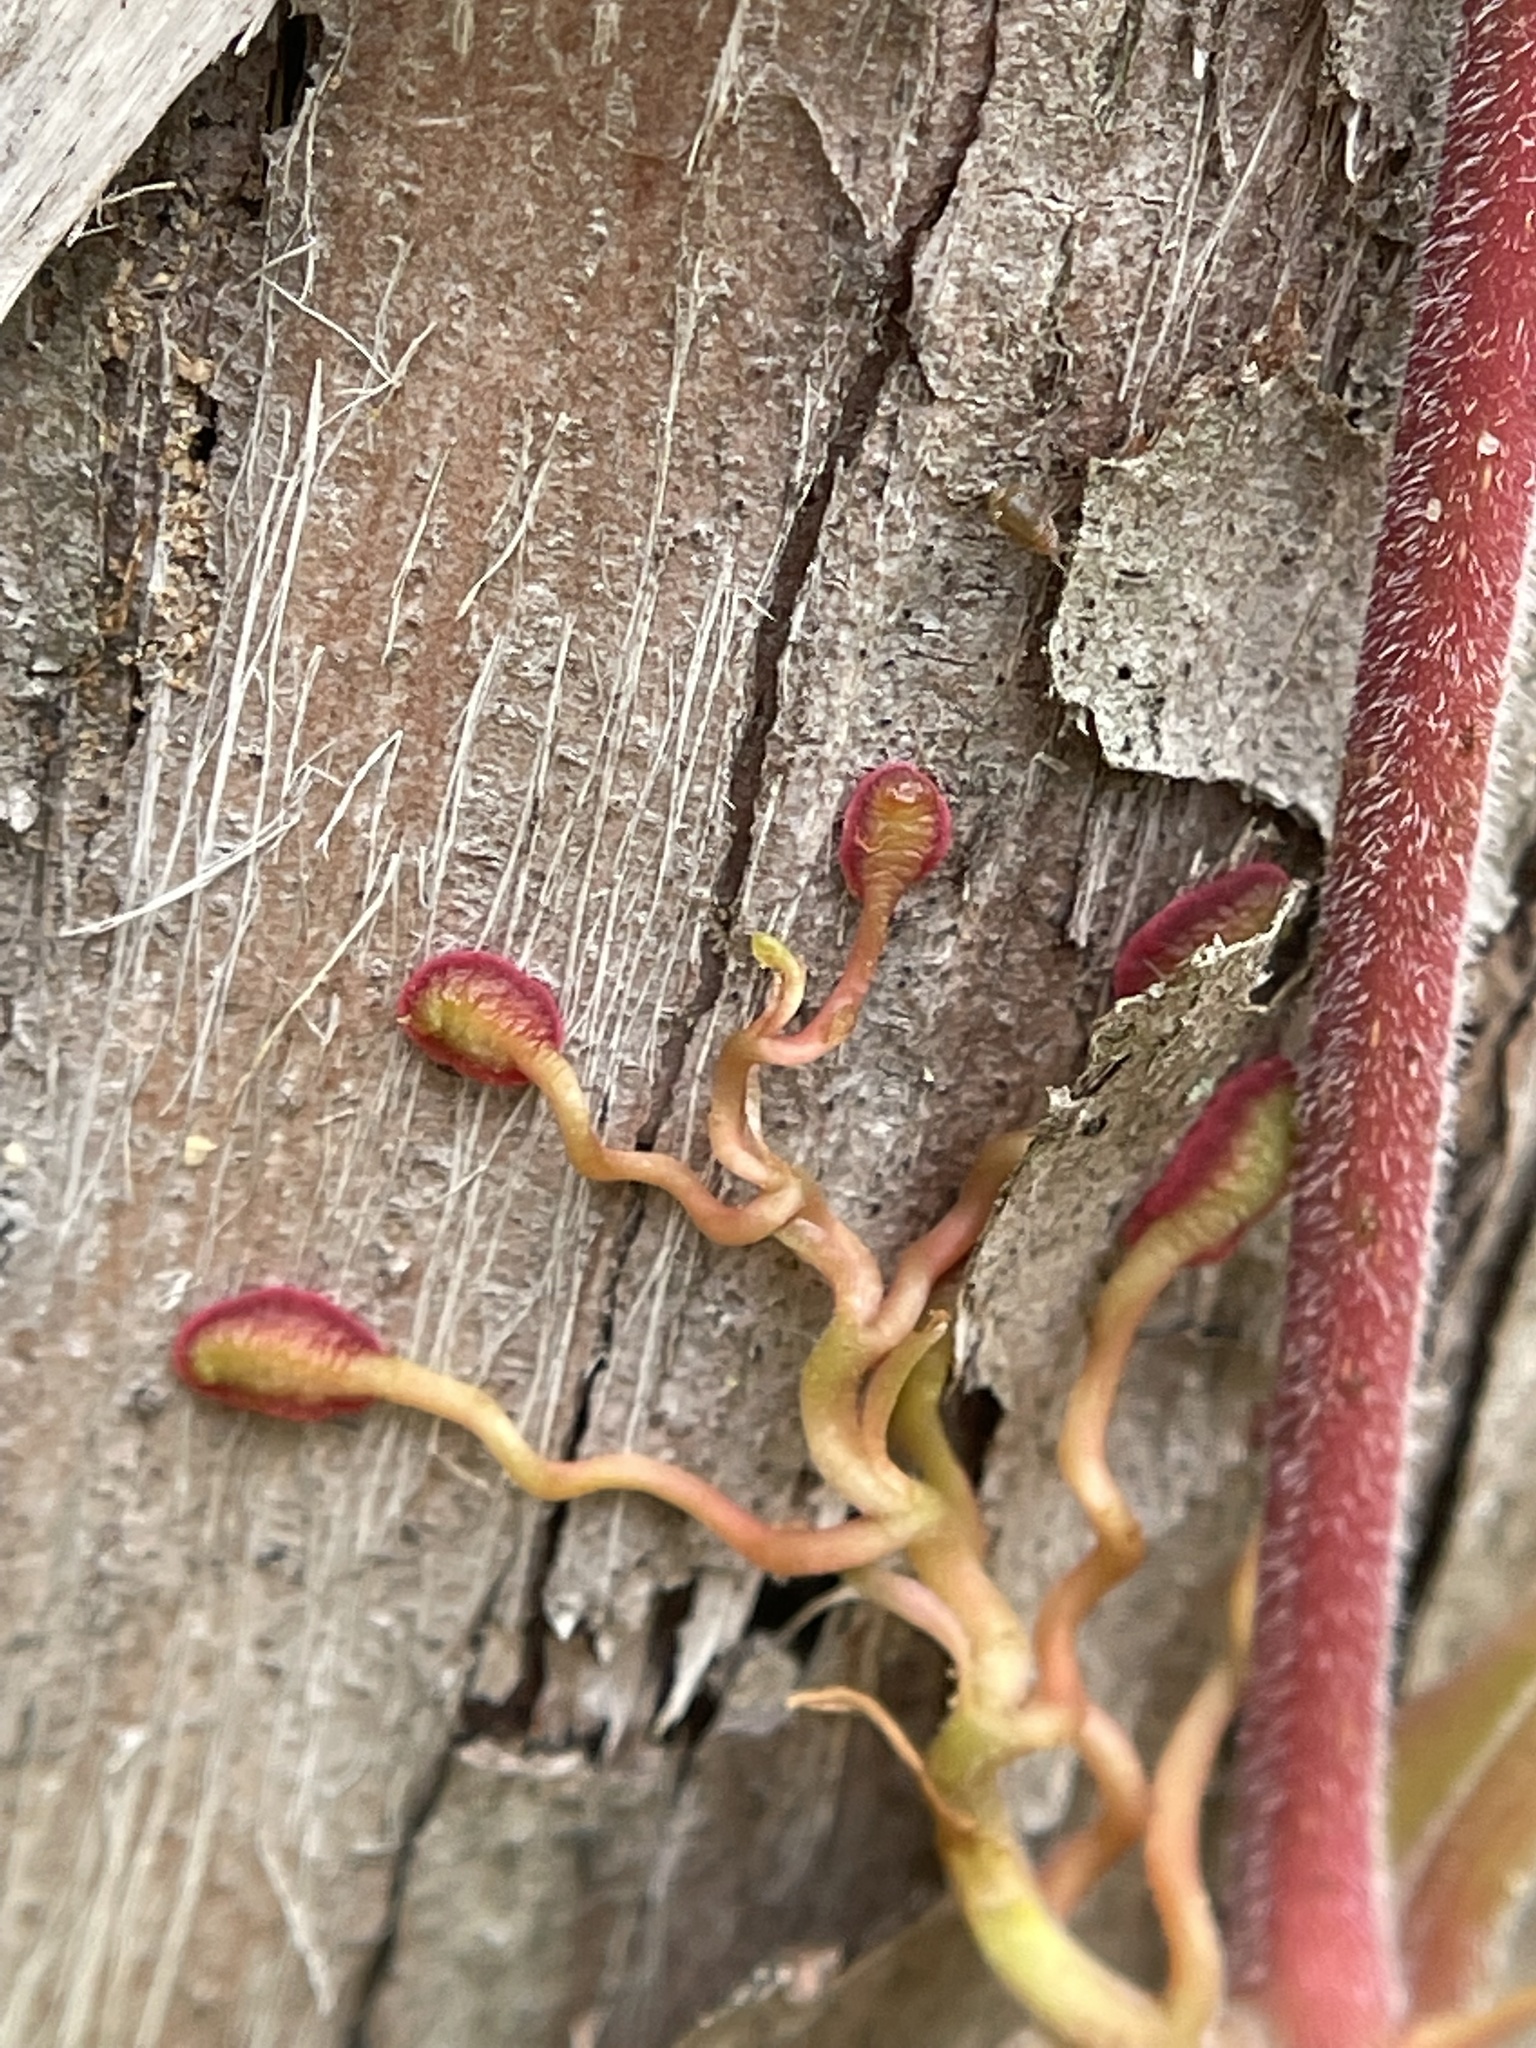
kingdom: Plantae
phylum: Tracheophyta
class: Magnoliopsida
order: Vitales
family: Vitaceae
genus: Parthenocissus
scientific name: Parthenocissus quinquefolia
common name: Virginia-creeper
